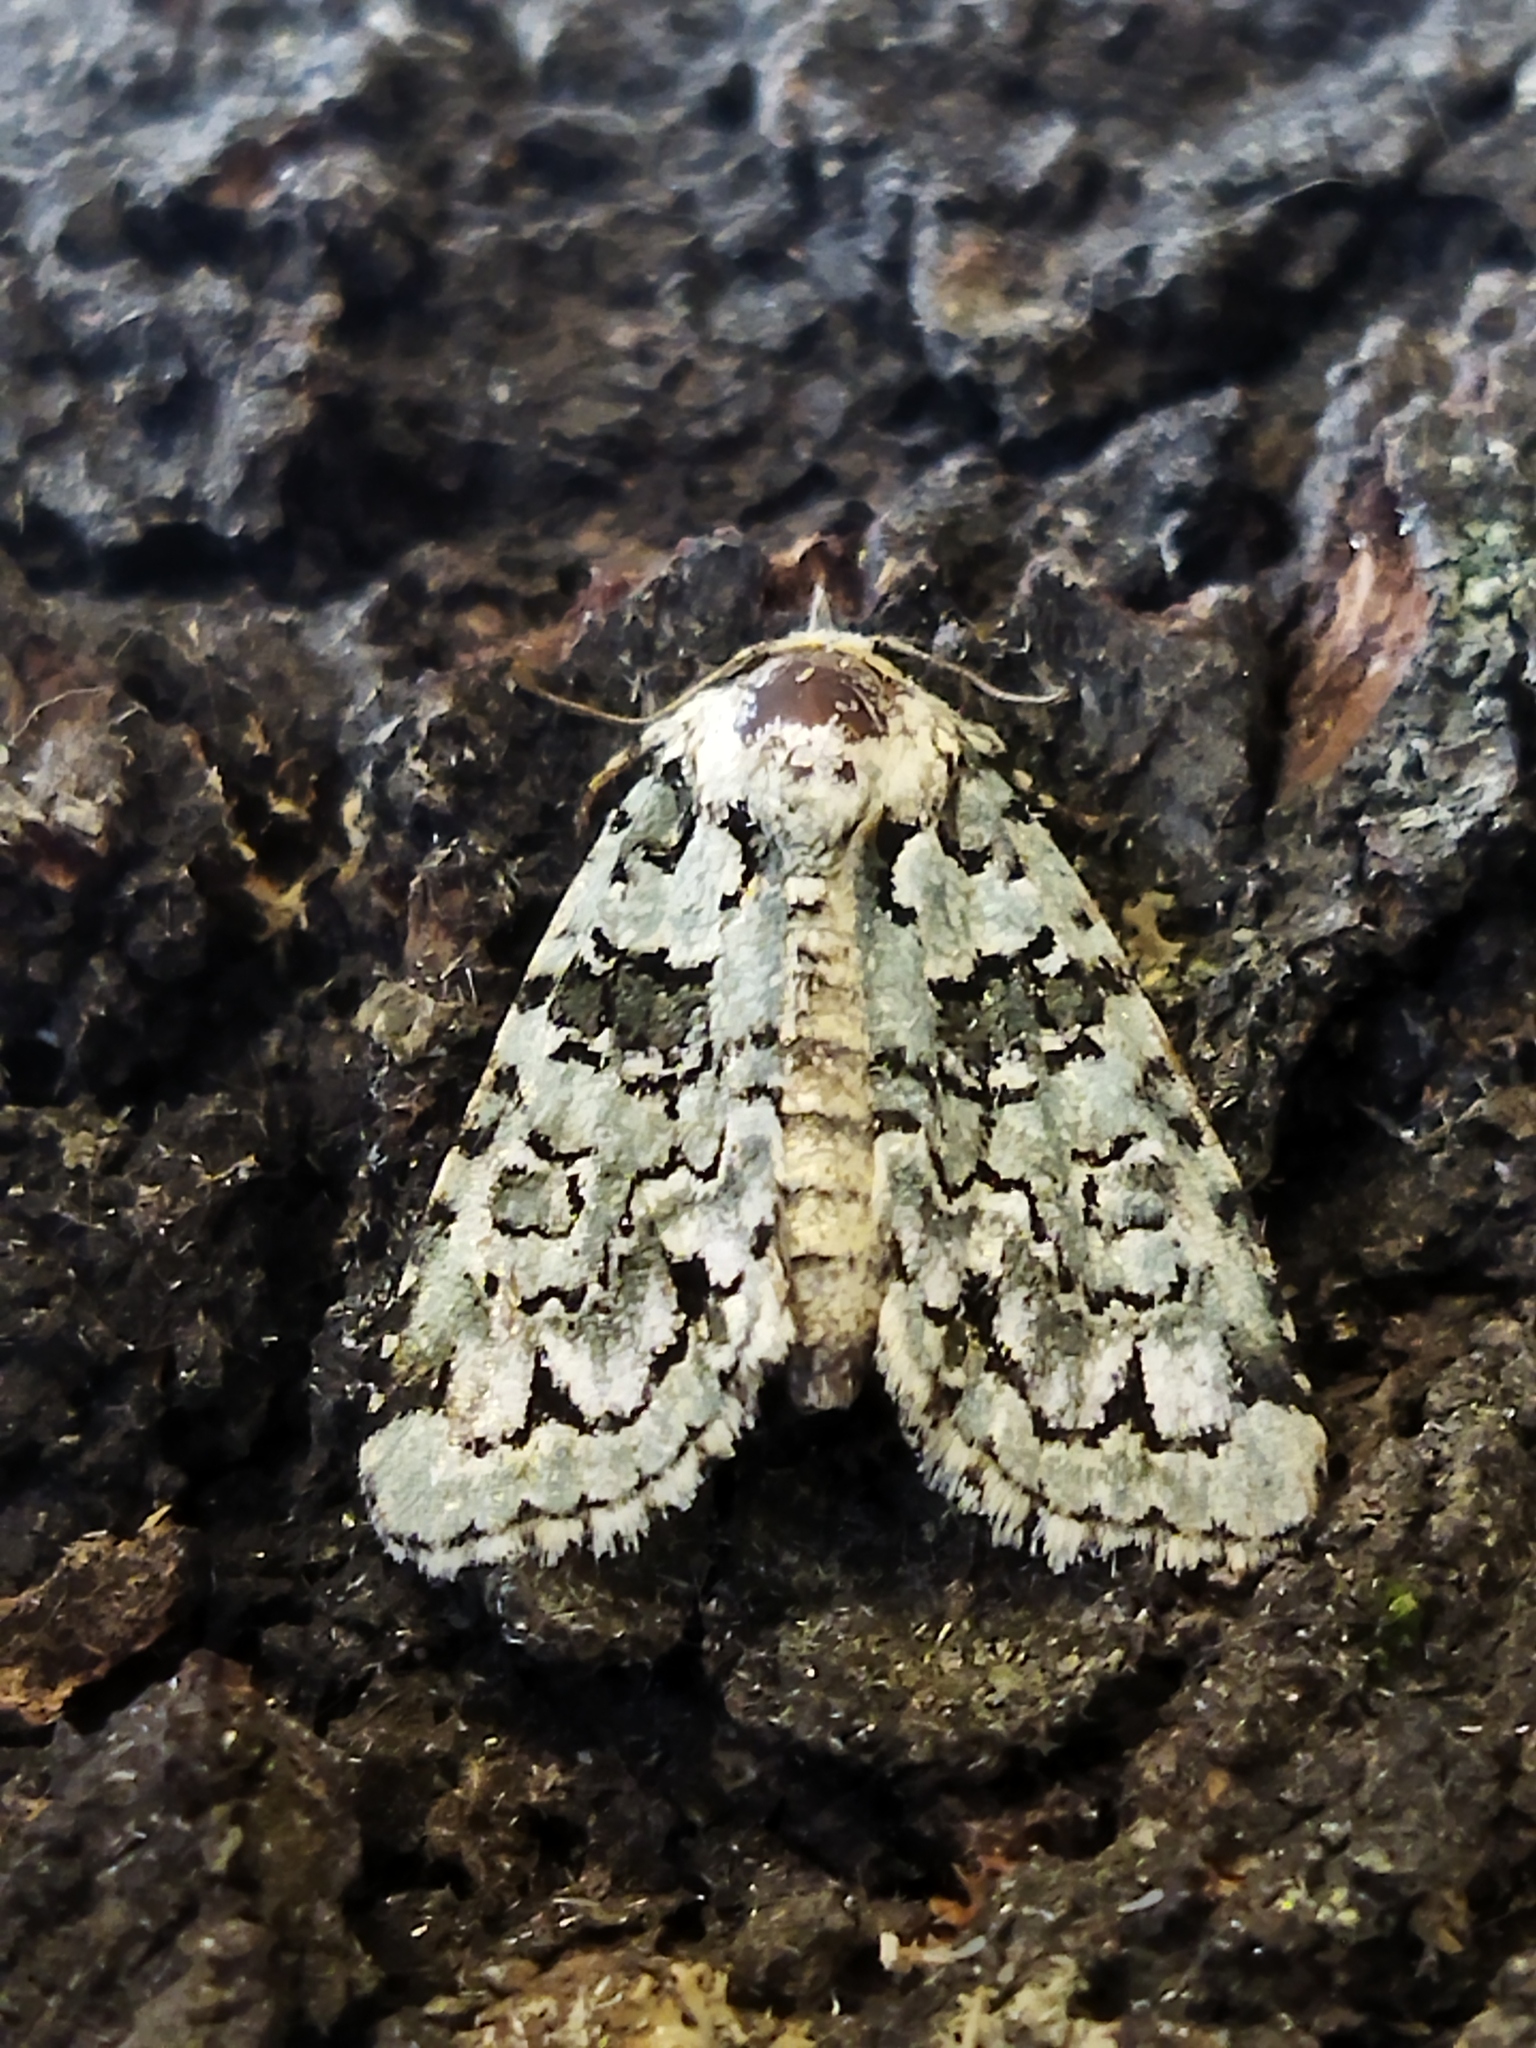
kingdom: Plantae
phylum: Chlorophyta
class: Ulvophyceae
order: Bryopsidales
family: Bryopsidaceae
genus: Bryopsis
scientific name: Bryopsis
